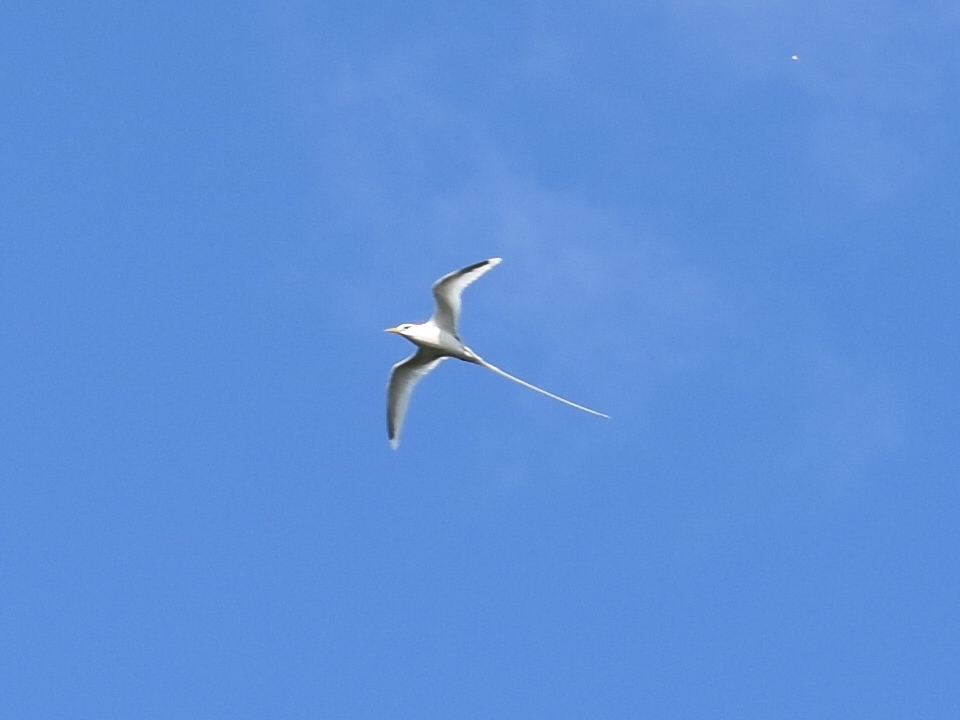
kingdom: Animalia
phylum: Chordata
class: Aves
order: Phaethontiformes
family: Phaethontidae
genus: Phaethon
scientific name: Phaethon lepturus
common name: White-tailed tropicbird
